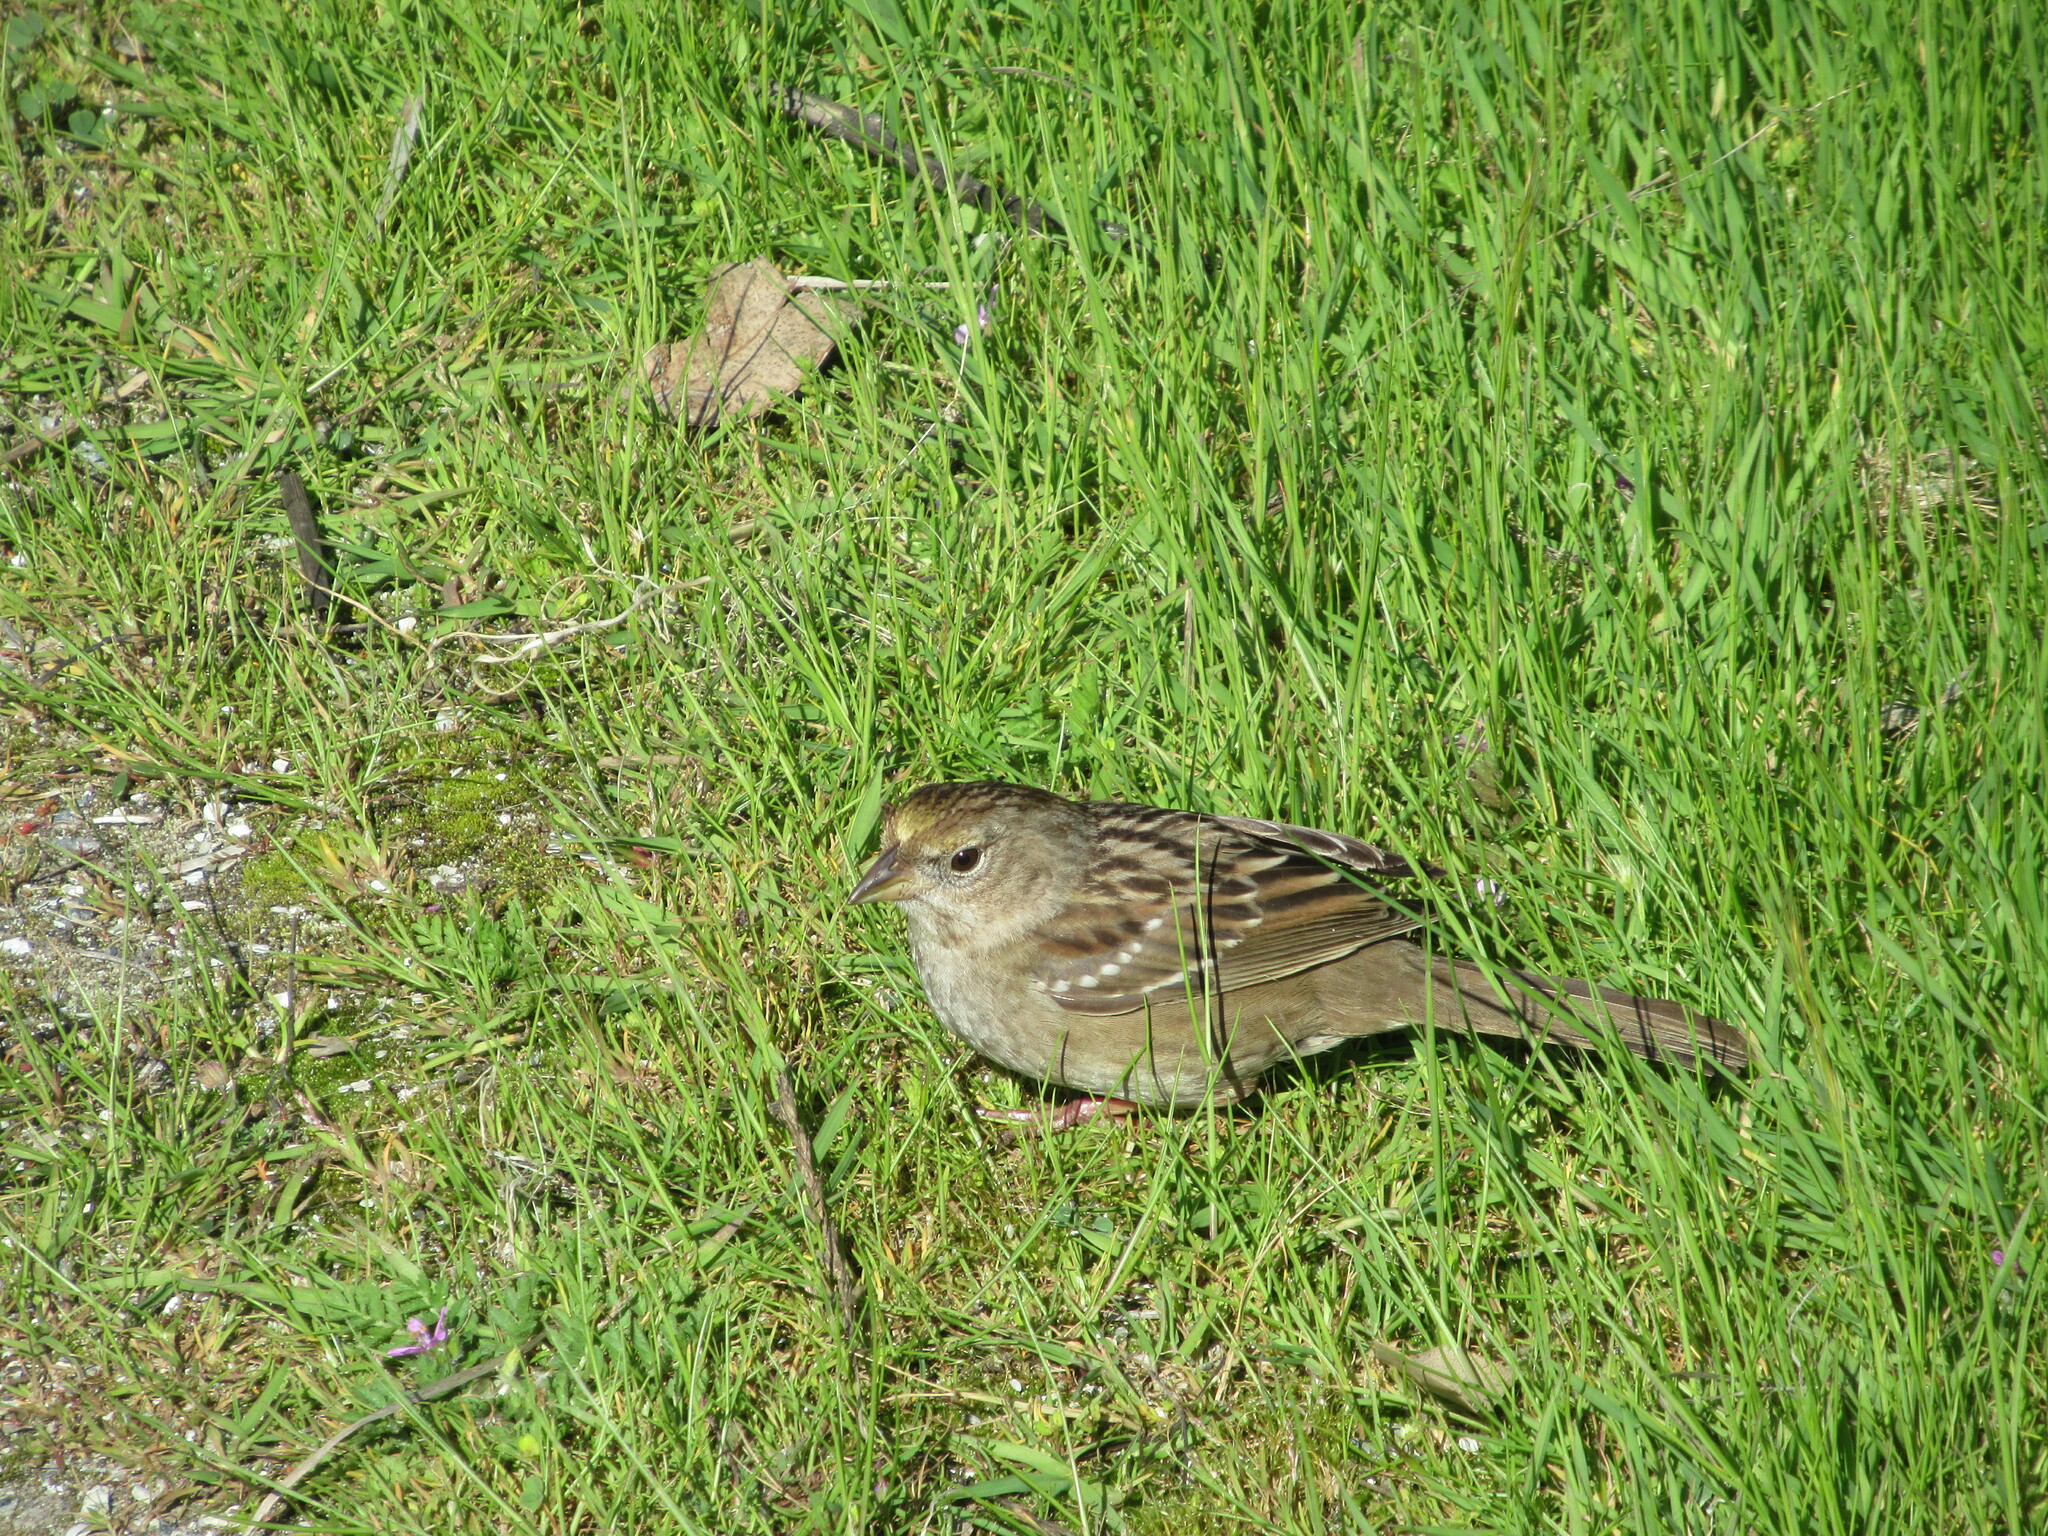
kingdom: Animalia
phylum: Chordata
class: Aves
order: Passeriformes
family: Passerellidae
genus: Zonotrichia
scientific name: Zonotrichia atricapilla
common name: Golden-crowned sparrow
